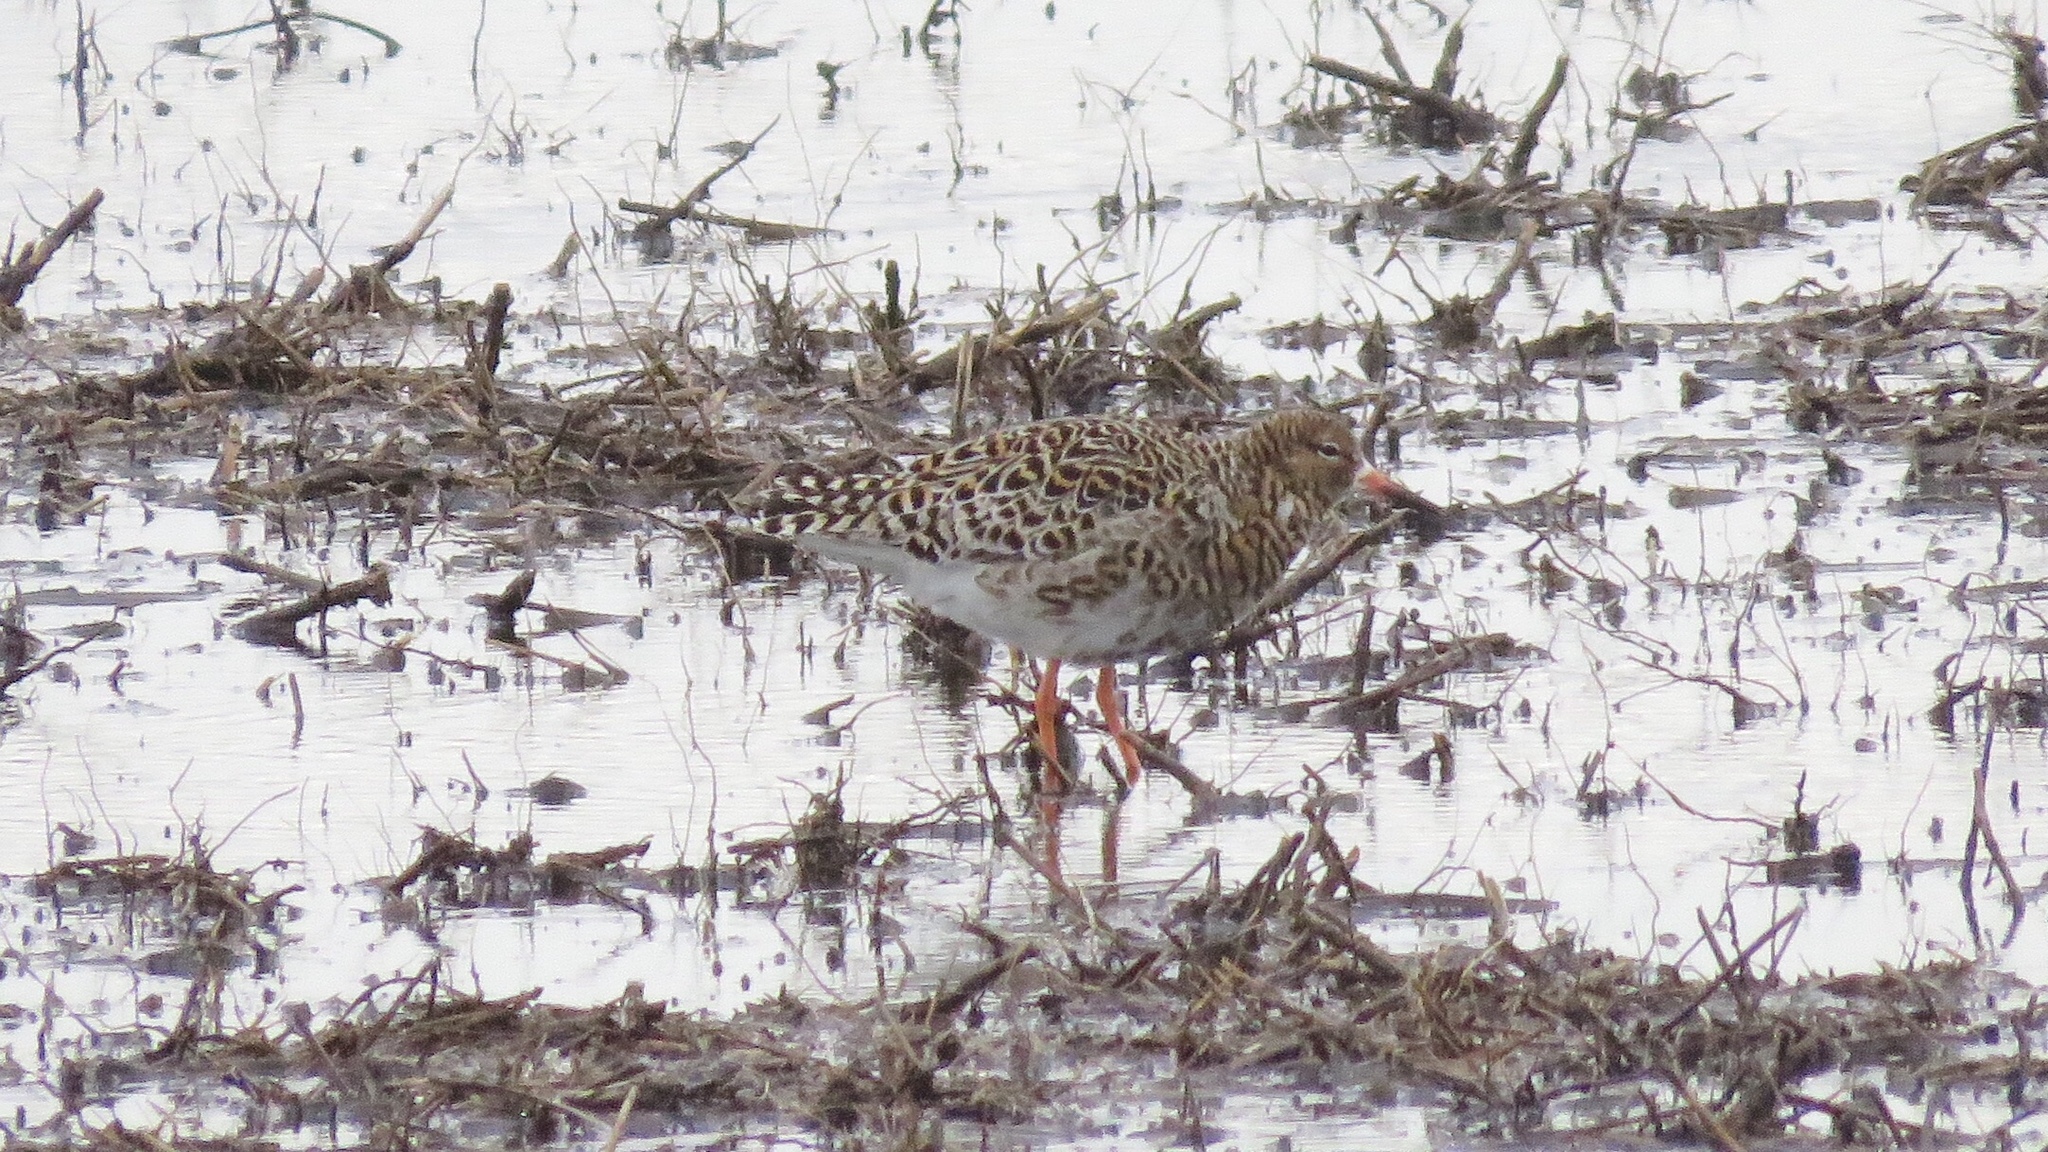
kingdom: Animalia
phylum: Chordata
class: Aves
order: Charadriiformes
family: Scolopacidae
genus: Calidris
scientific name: Calidris pugnax
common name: Ruff
